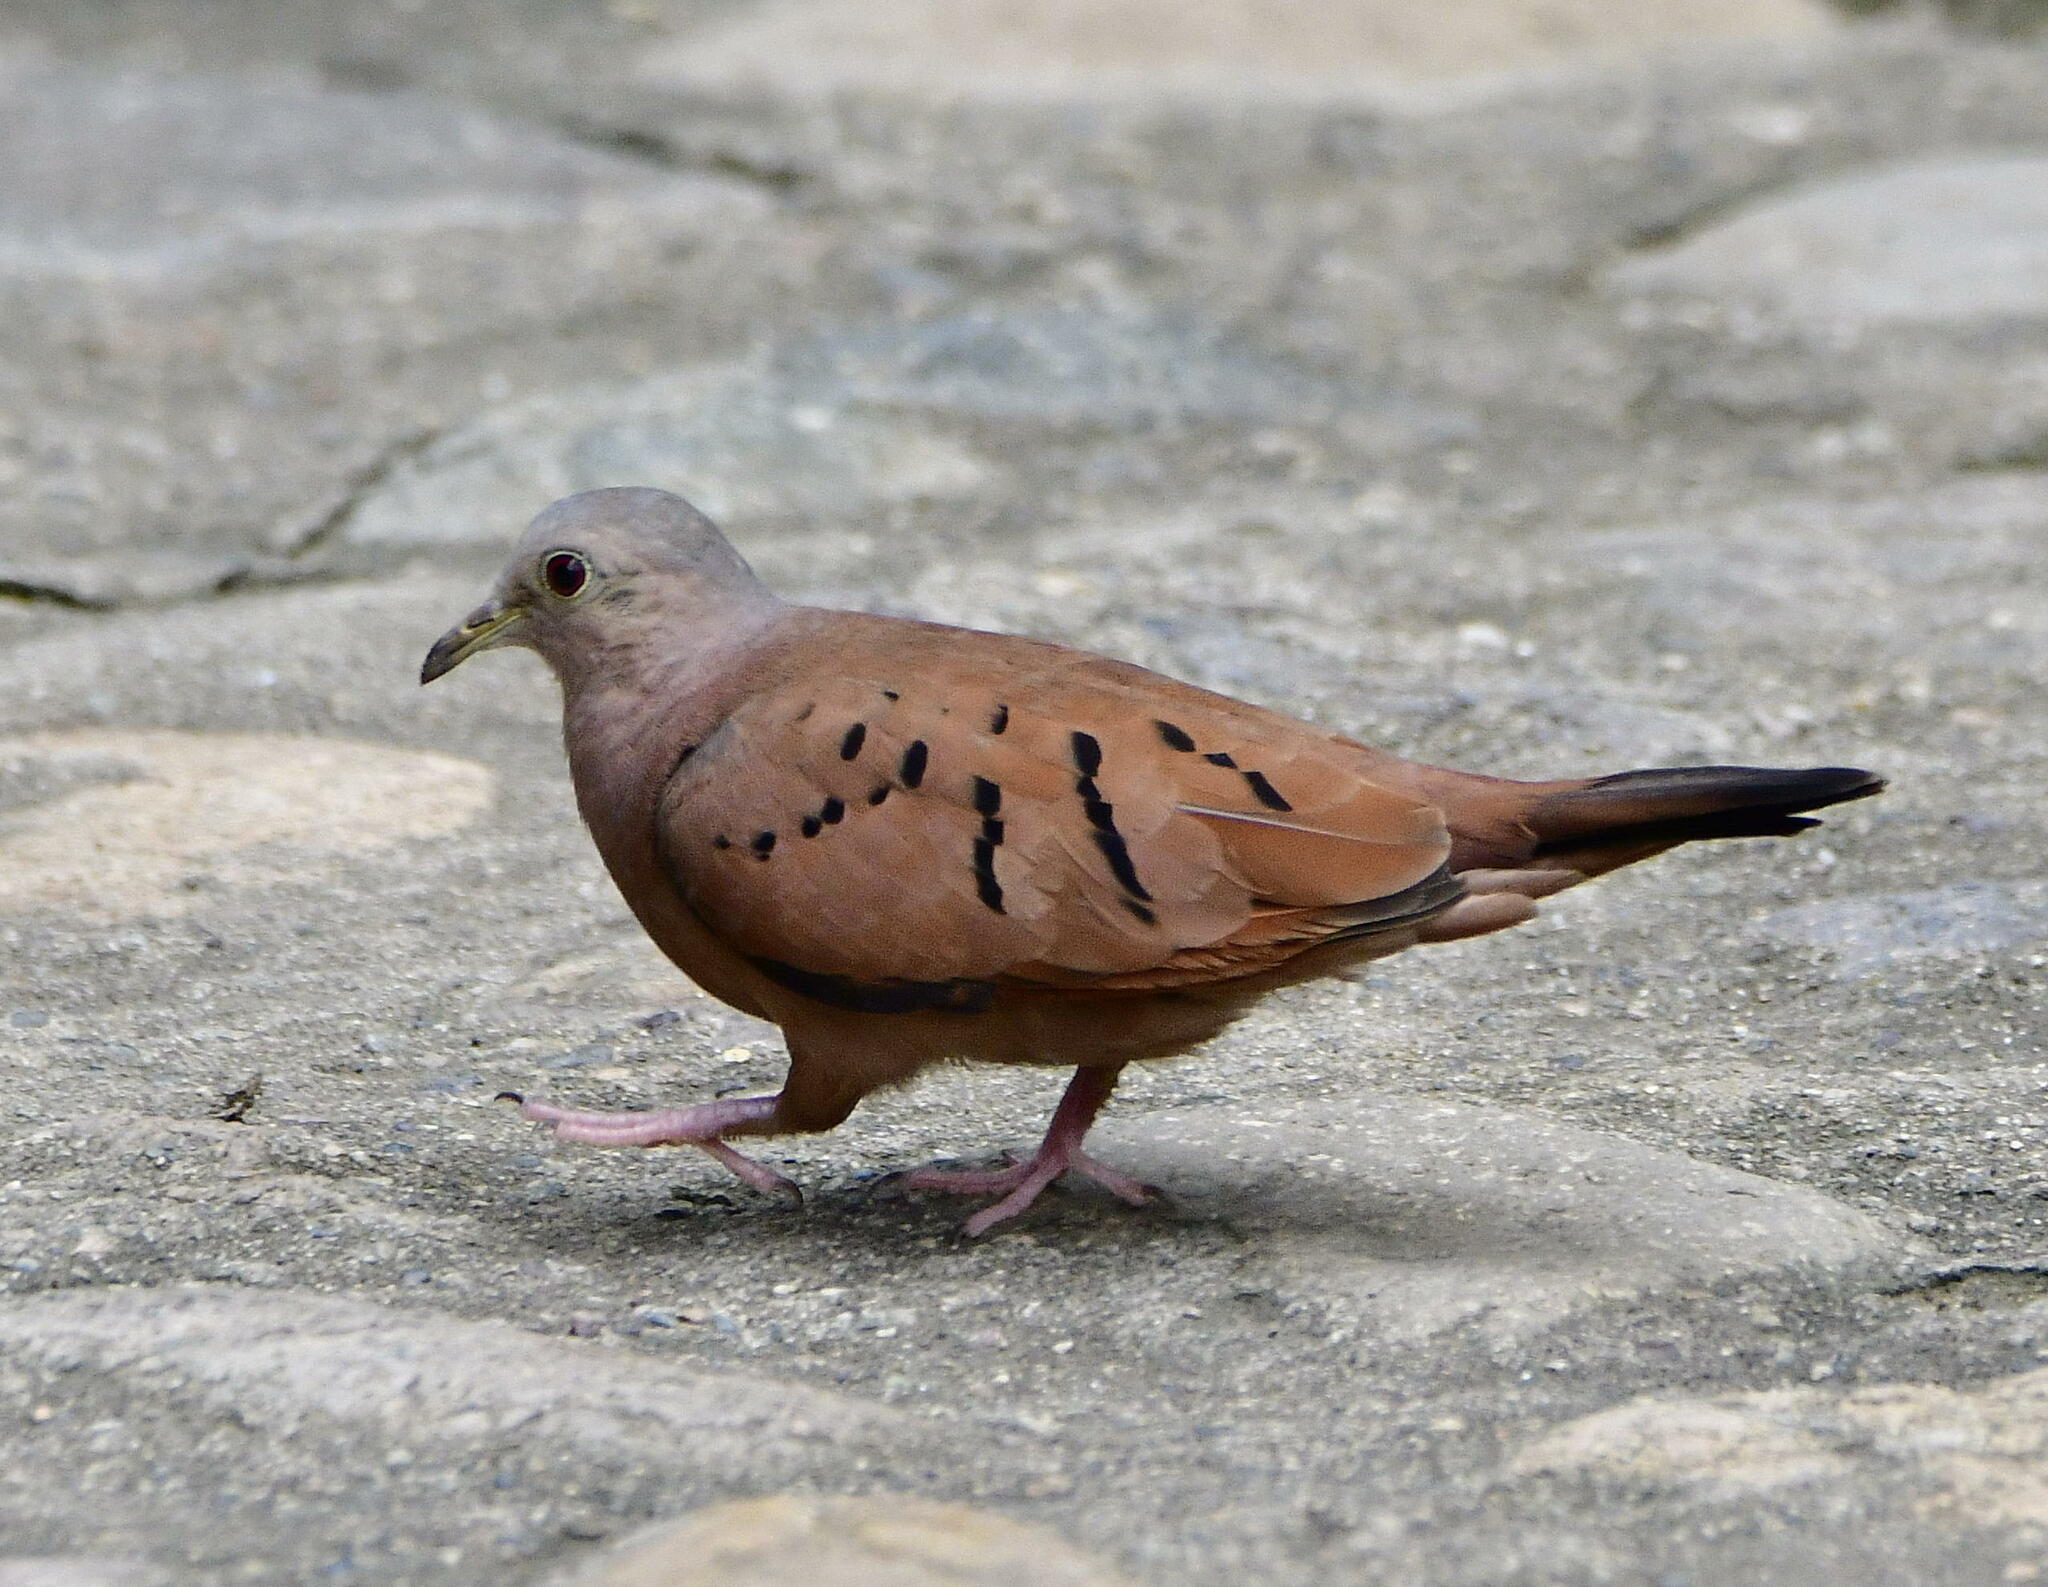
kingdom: Animalia
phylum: Chordata
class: Aves
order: Columbiformes
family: Columbidae
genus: Columbina
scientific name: Columbina talpacoti
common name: Ruddy ground dove
